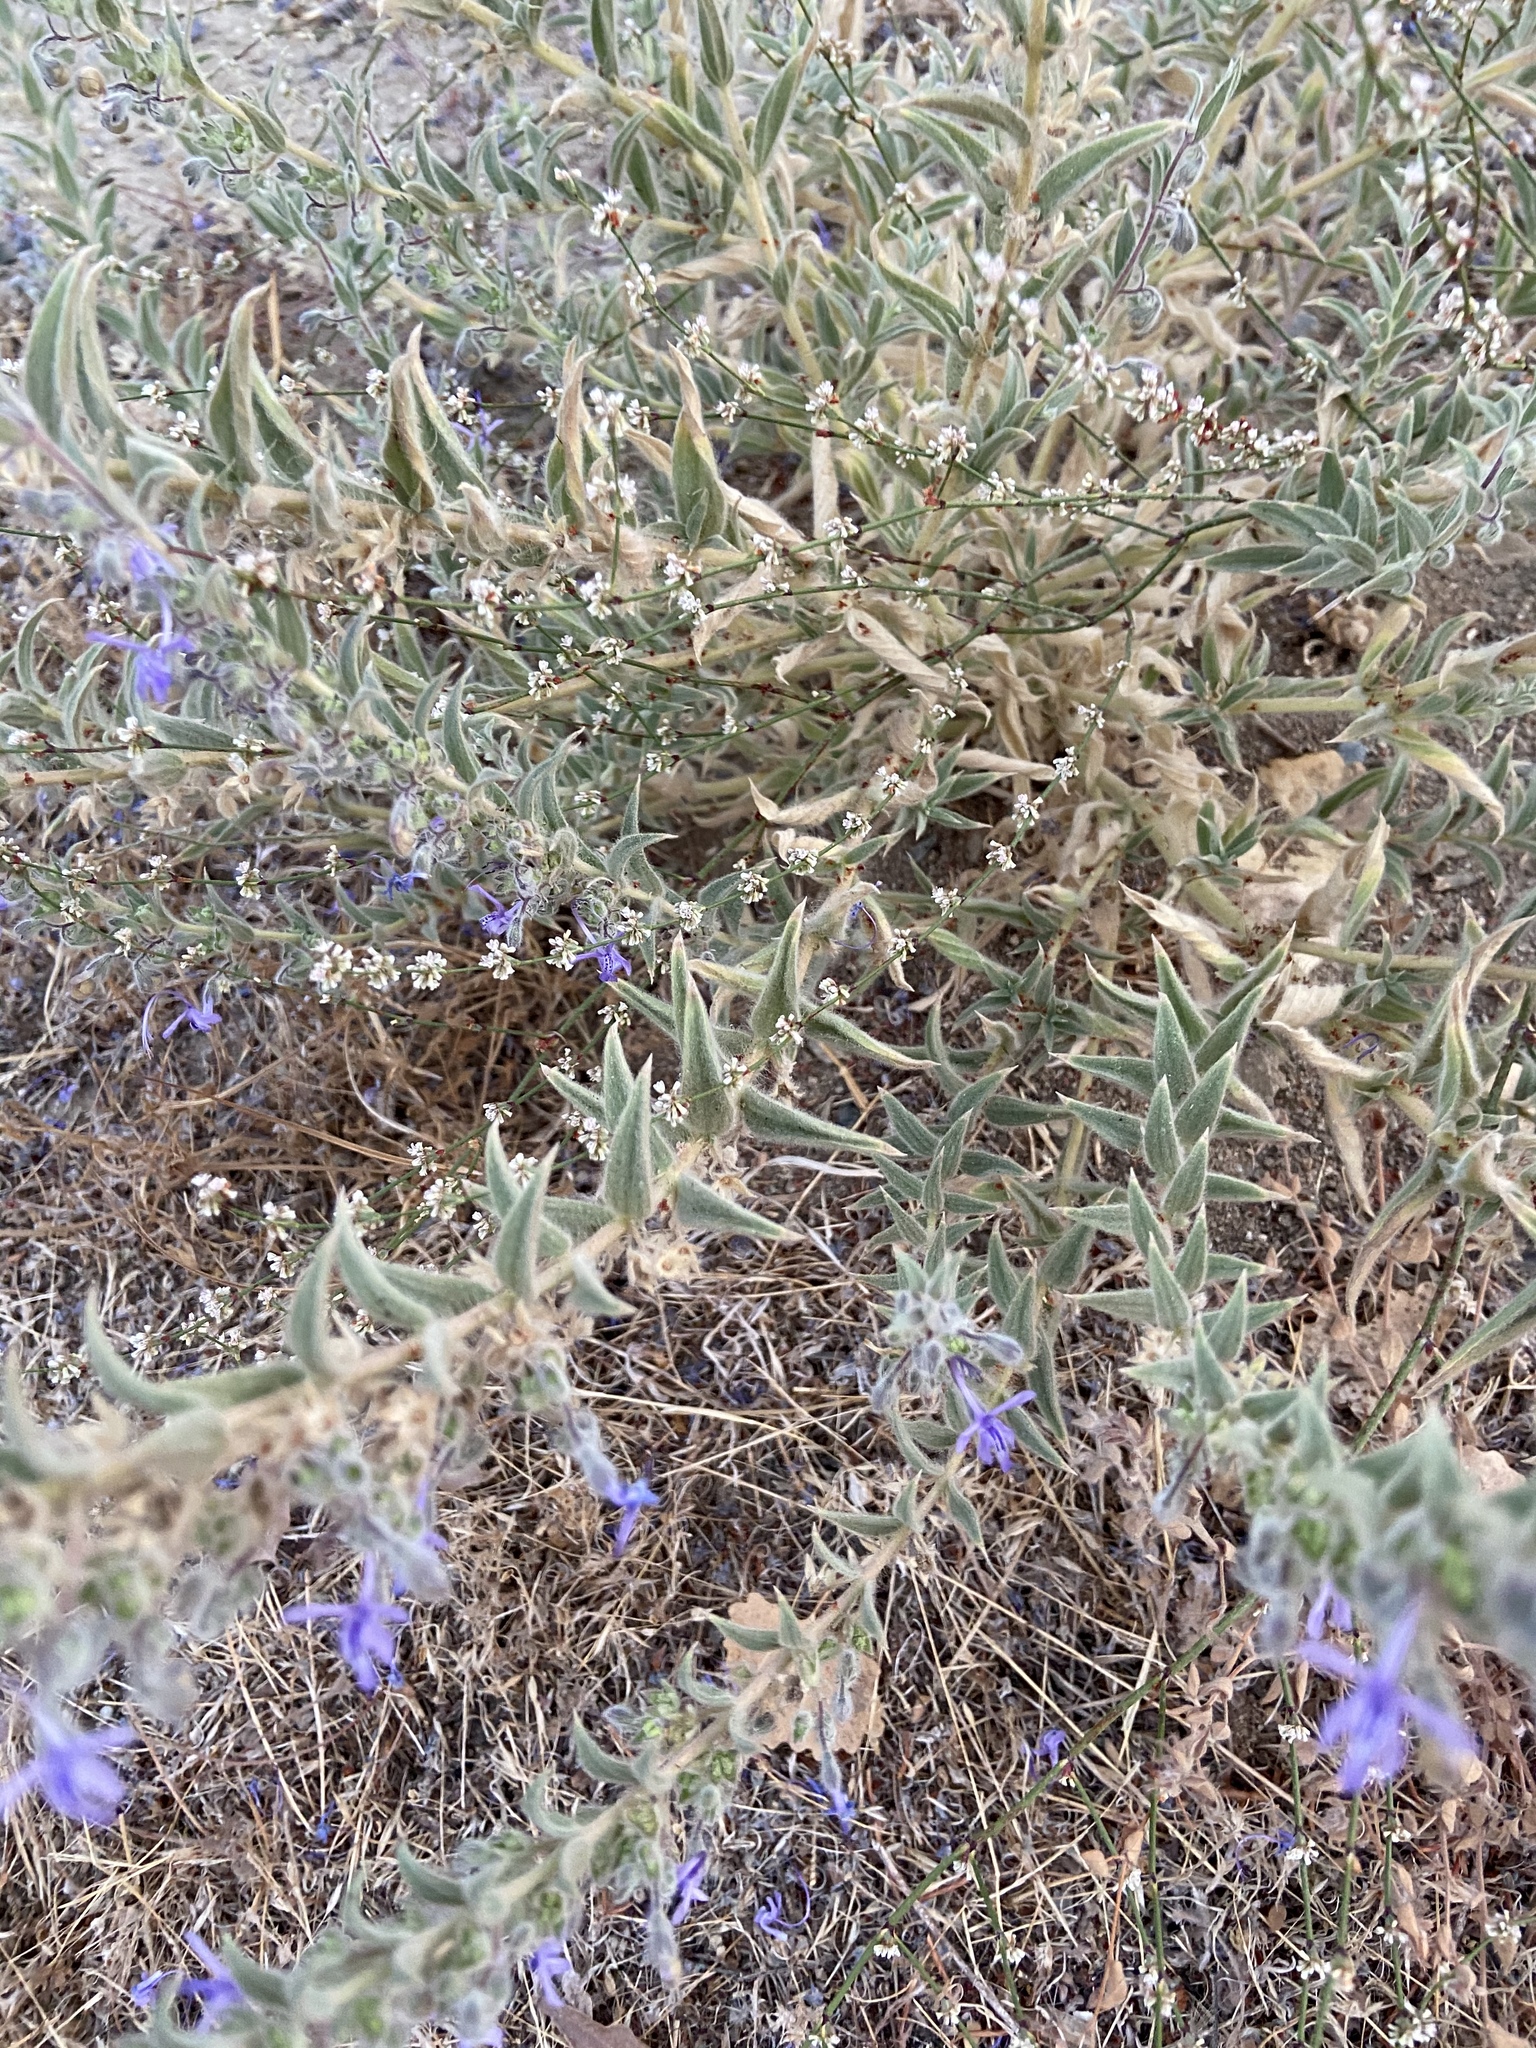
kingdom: Plantae
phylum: Tracheophyta
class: Magnoliopsida
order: Lamiales
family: Lamiaceae
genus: Trichostema
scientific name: Trichostema lanceolatum
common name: Vinegar-weed
